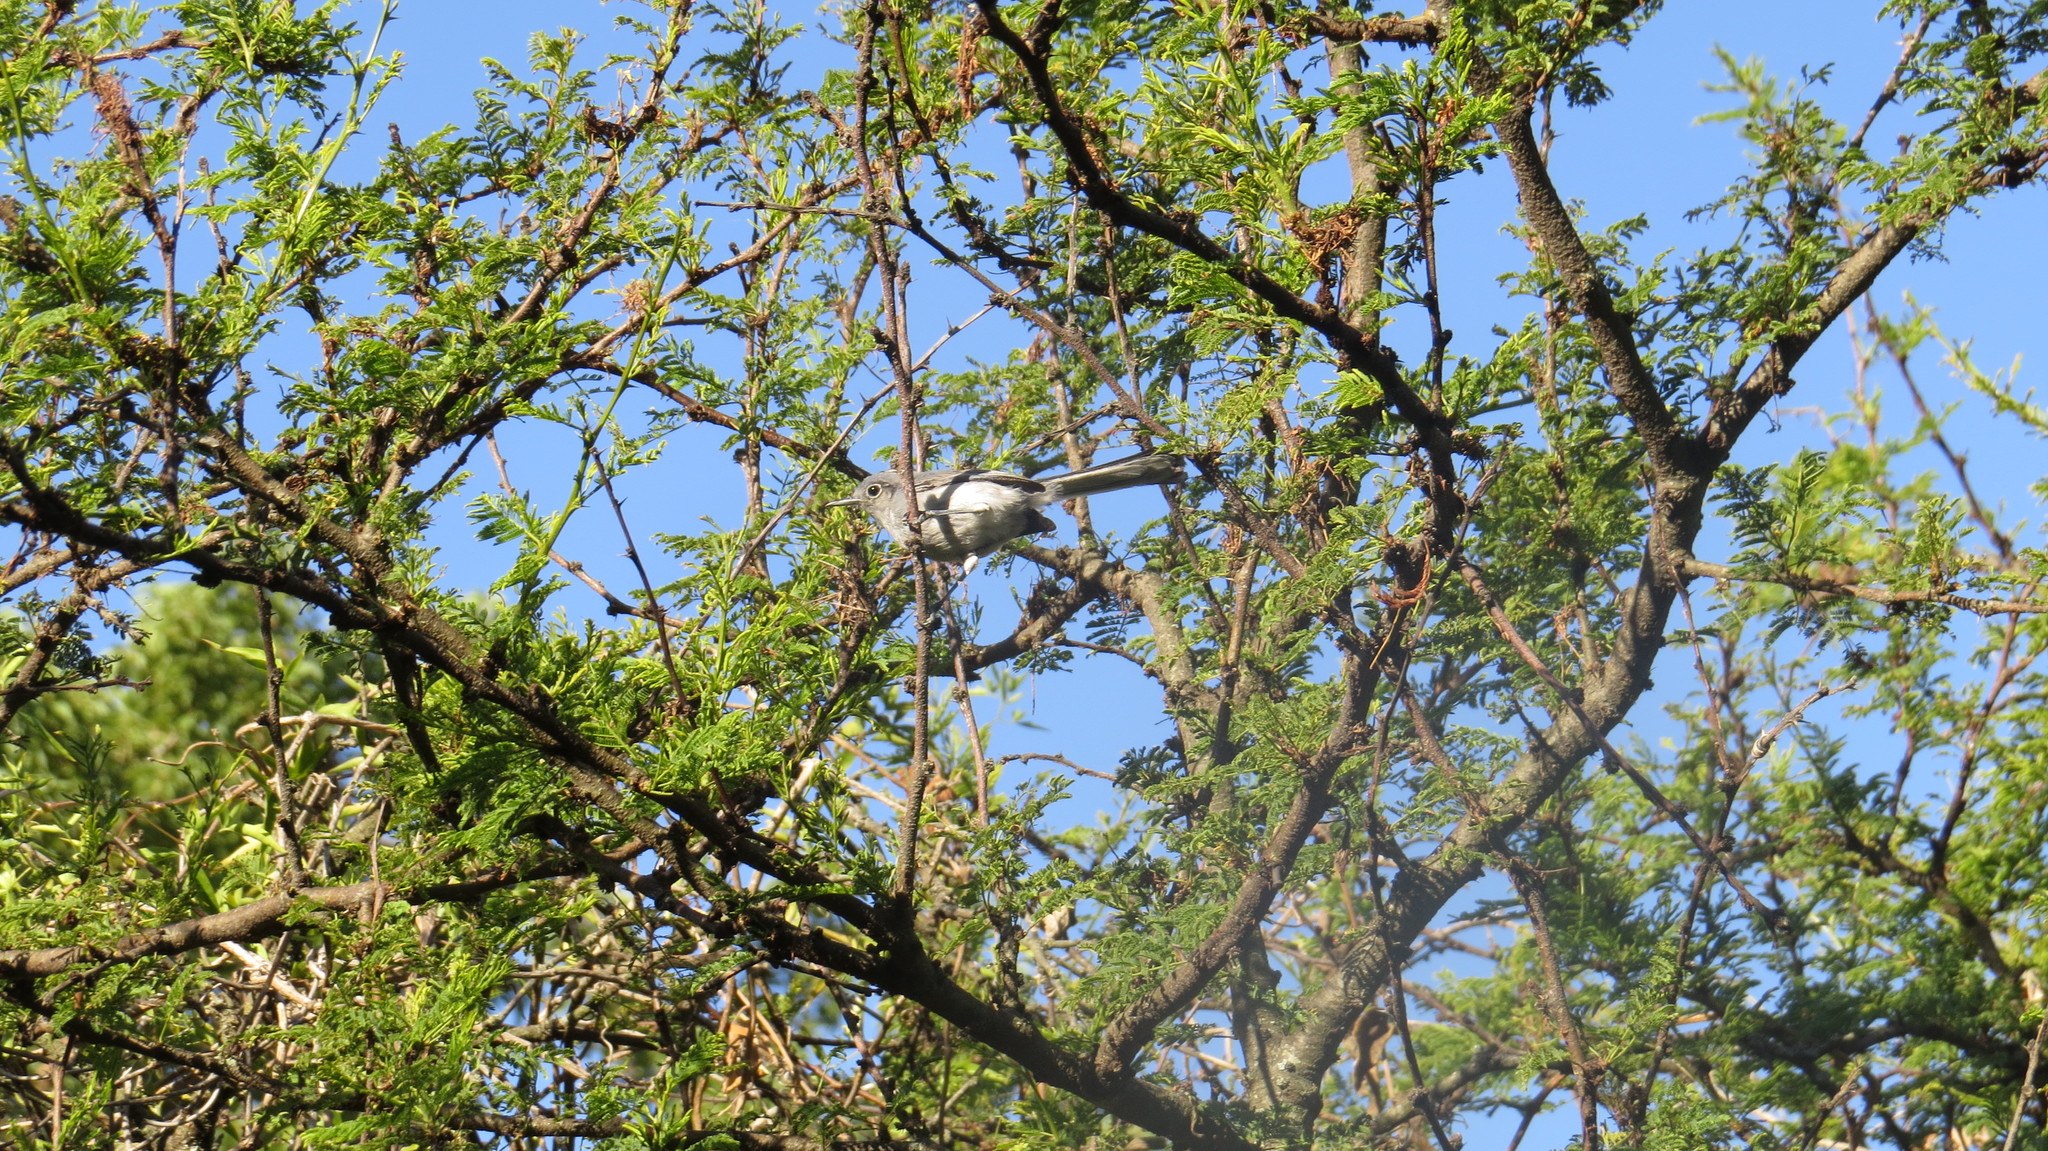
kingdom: Animalia
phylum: Chordata
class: Aves
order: Passeriformes
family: Polioptilidae
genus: Polioptila
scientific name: Polioptila dumicola
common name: Masked gnatcatcher
